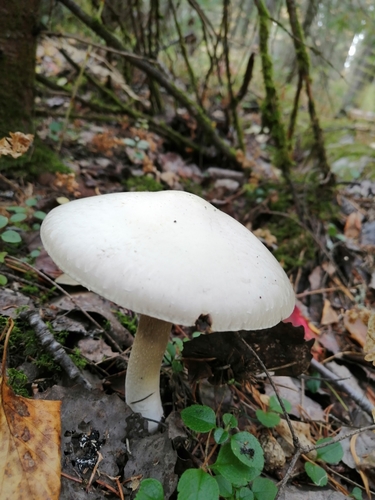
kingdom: Fungi
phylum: Basidiomycota
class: Agaricomycetes
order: Agaricales
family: Agaricaceae
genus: Agaricus
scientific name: Agaricus sylvicola
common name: Wood mushroom
